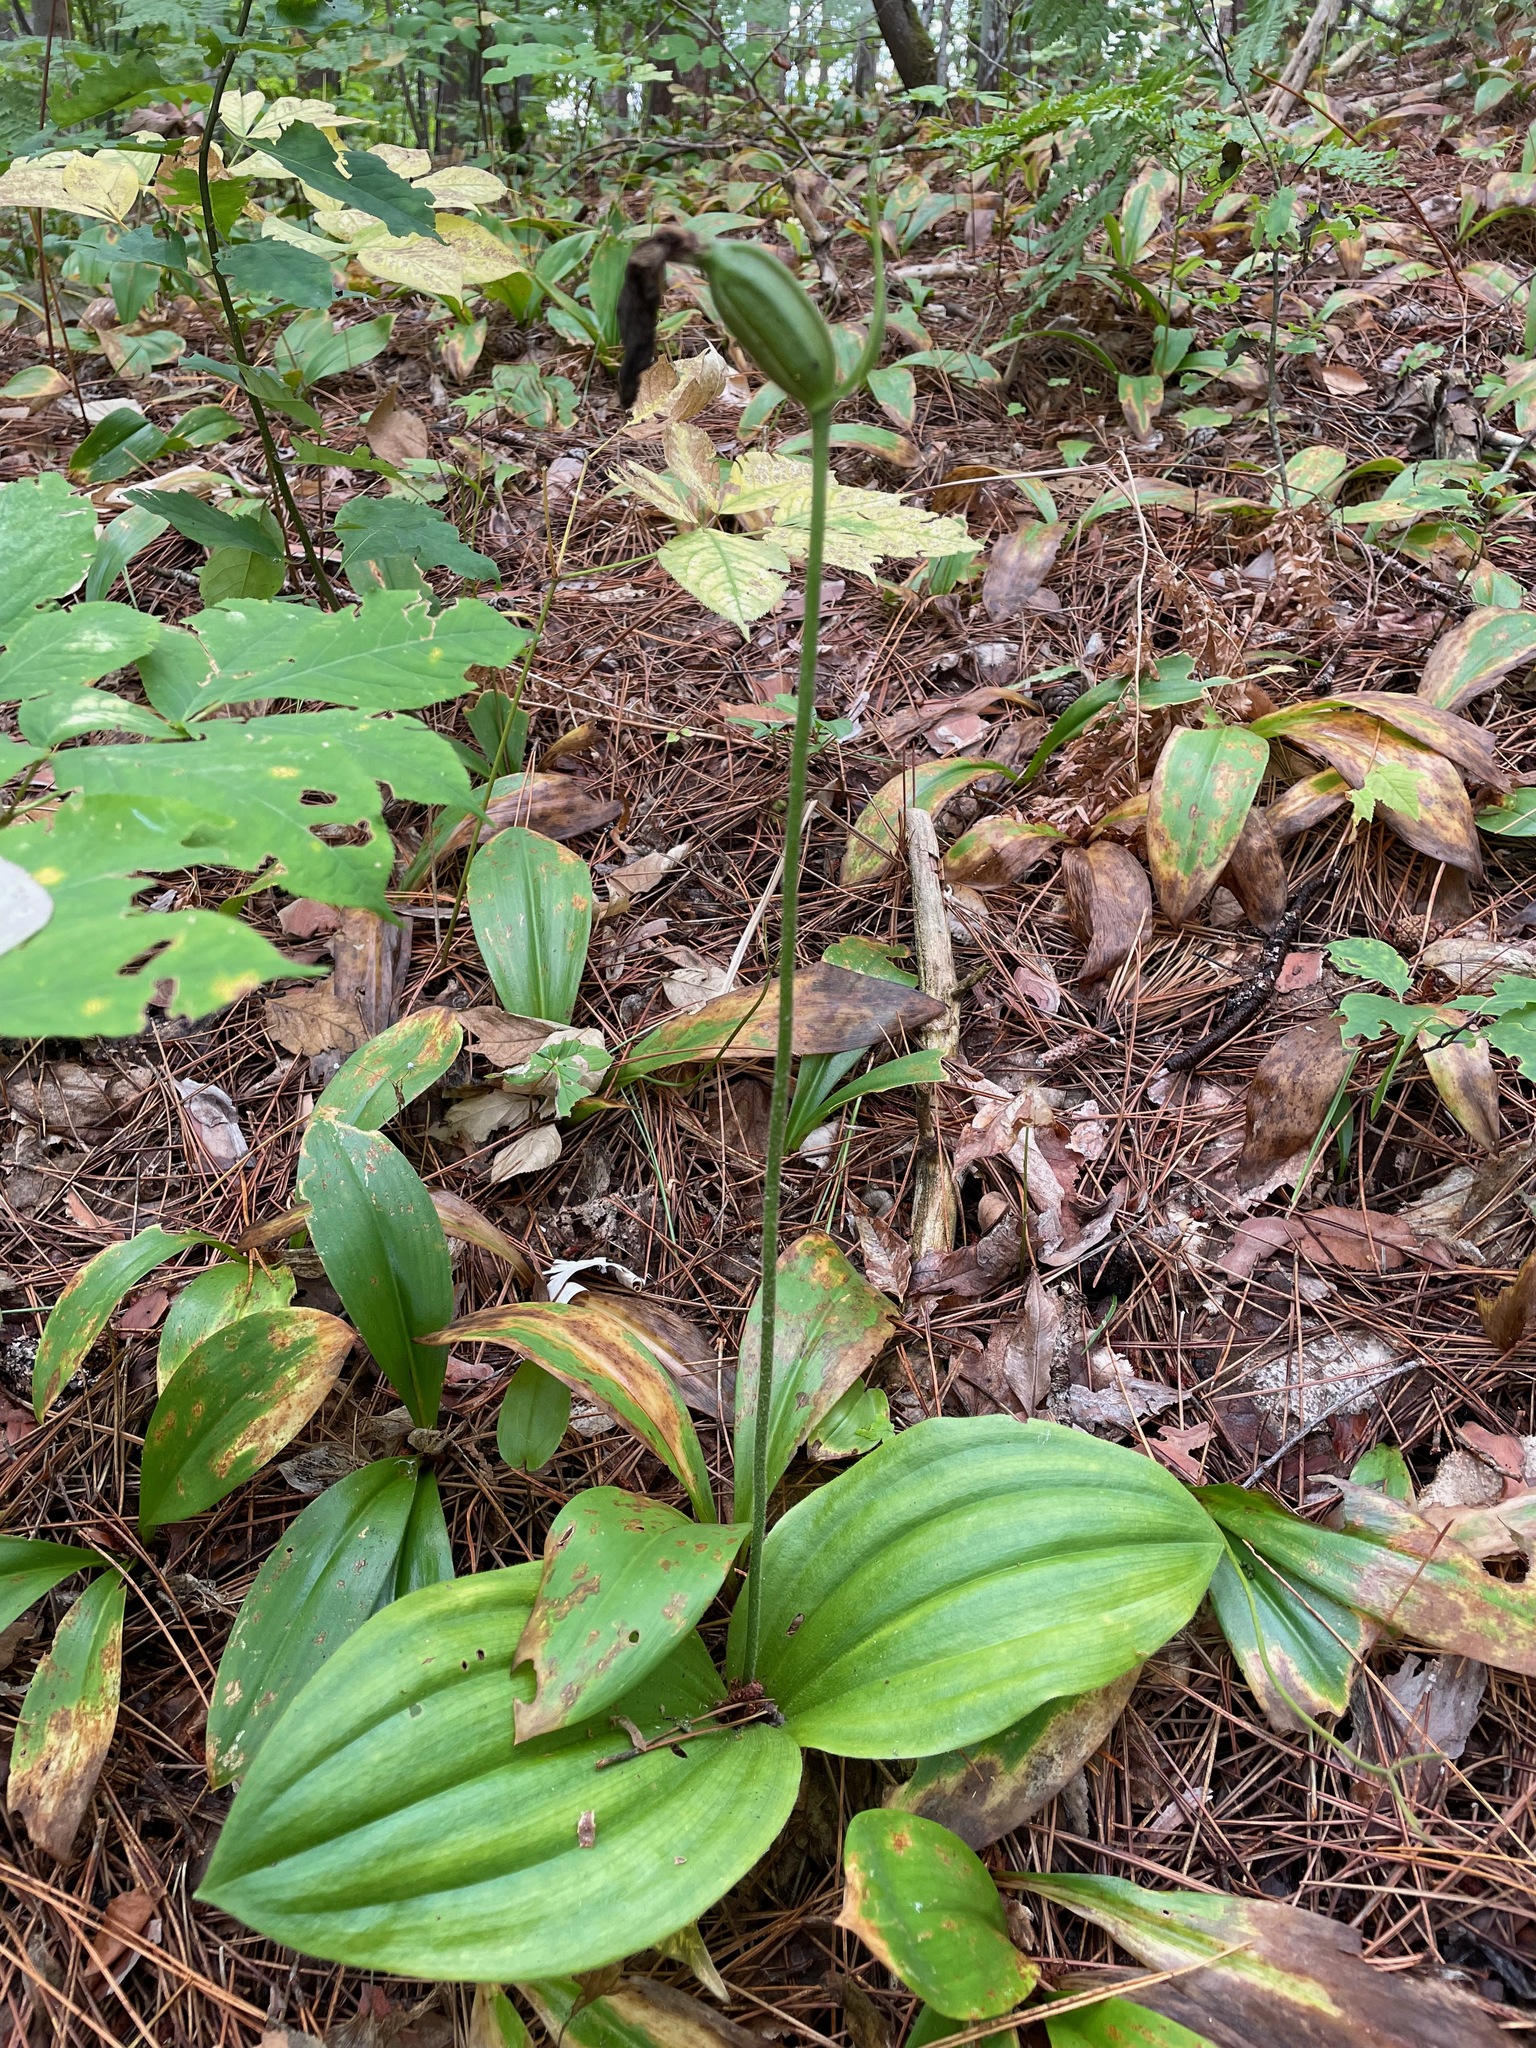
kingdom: Plantae
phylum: Tracheophyta
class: Liliopsida
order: Asparagales
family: Orchidaceae
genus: Cypripedium
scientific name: Cypripedium acaule
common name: Pink lady's-slipper
